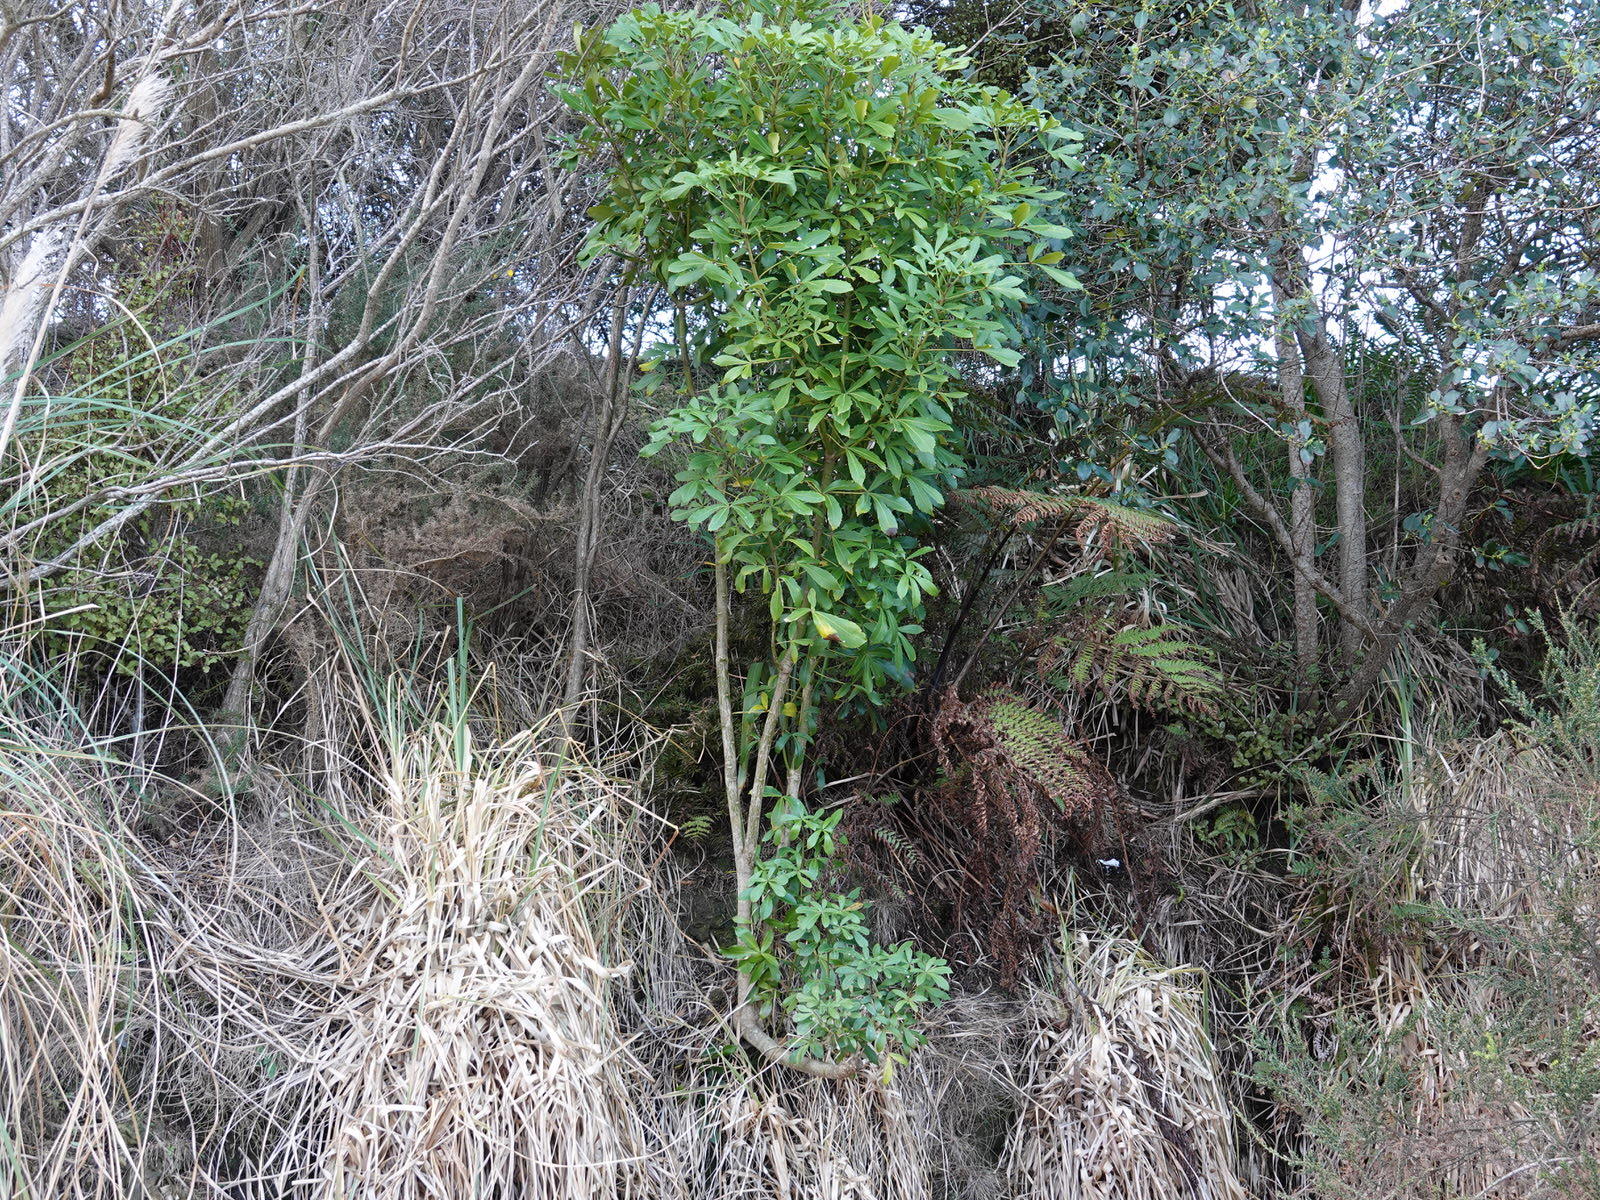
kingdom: Plantae
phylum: Tracheophyta
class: Magnoliopsida
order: Apiales
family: Araliaceae
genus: Pseudopanax
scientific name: Pseudopanax lessonii
